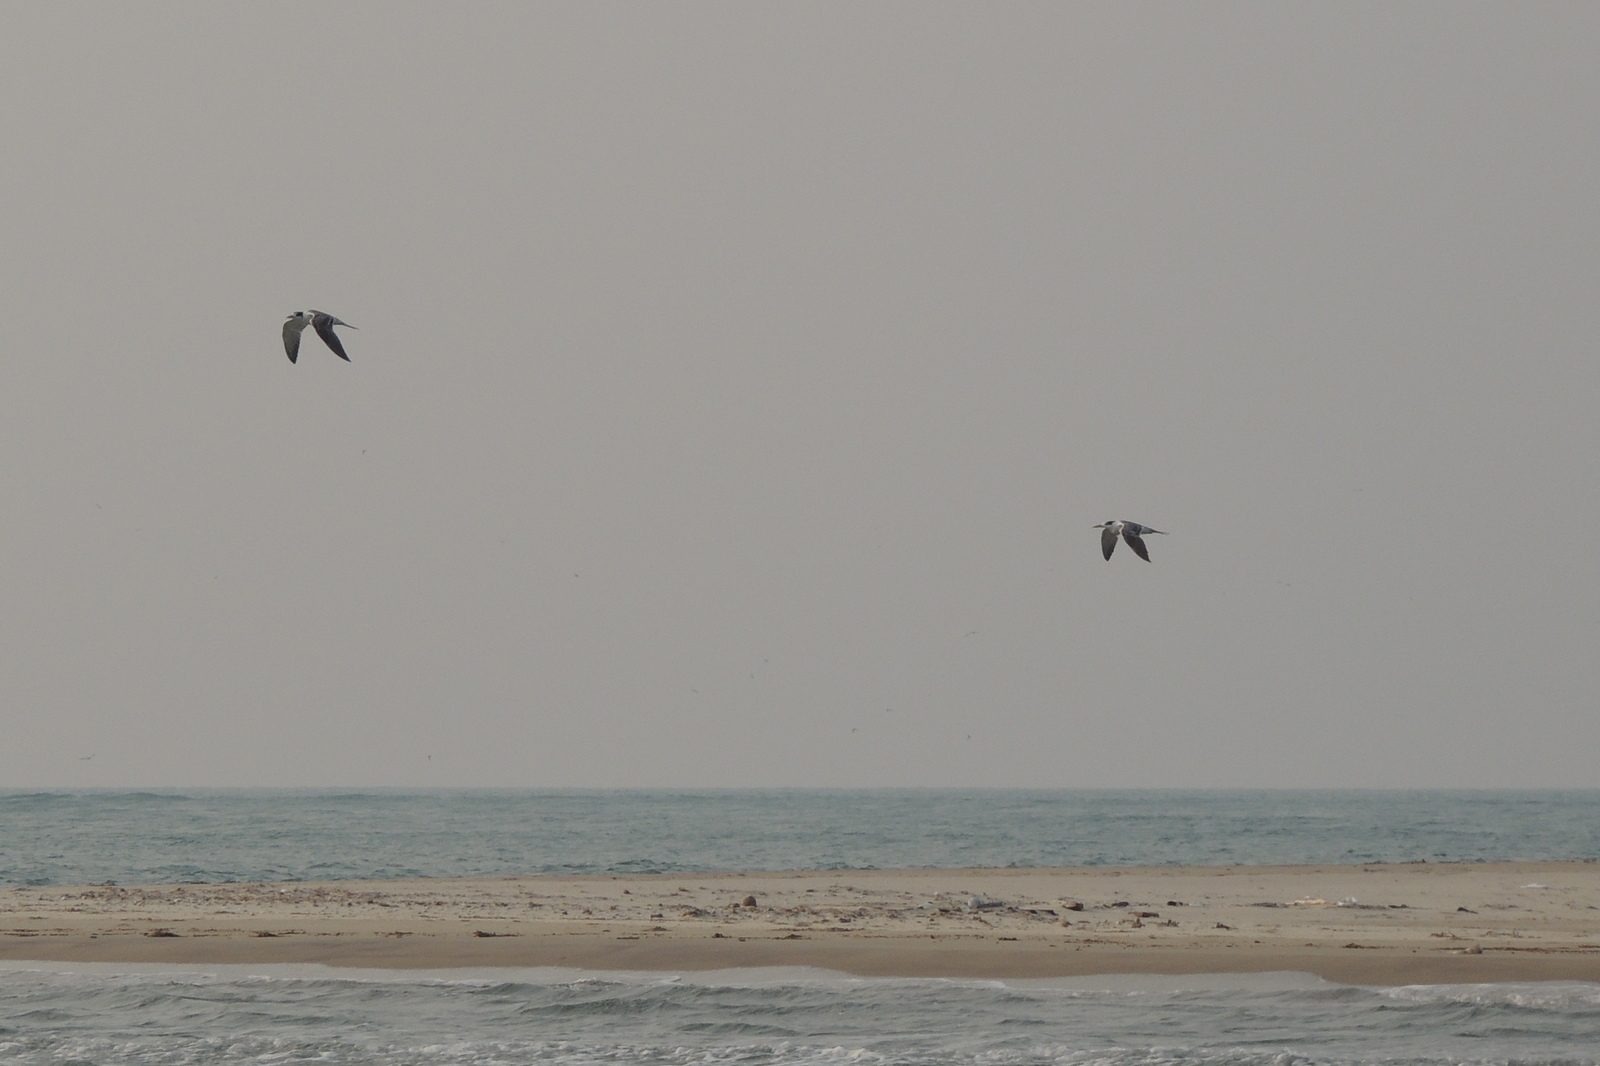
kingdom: Animalia
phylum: Chordata
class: Aves
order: Charadriiformes
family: Laridae
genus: Thalasseus
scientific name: Thalasseus bergii
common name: Greater crested tern
